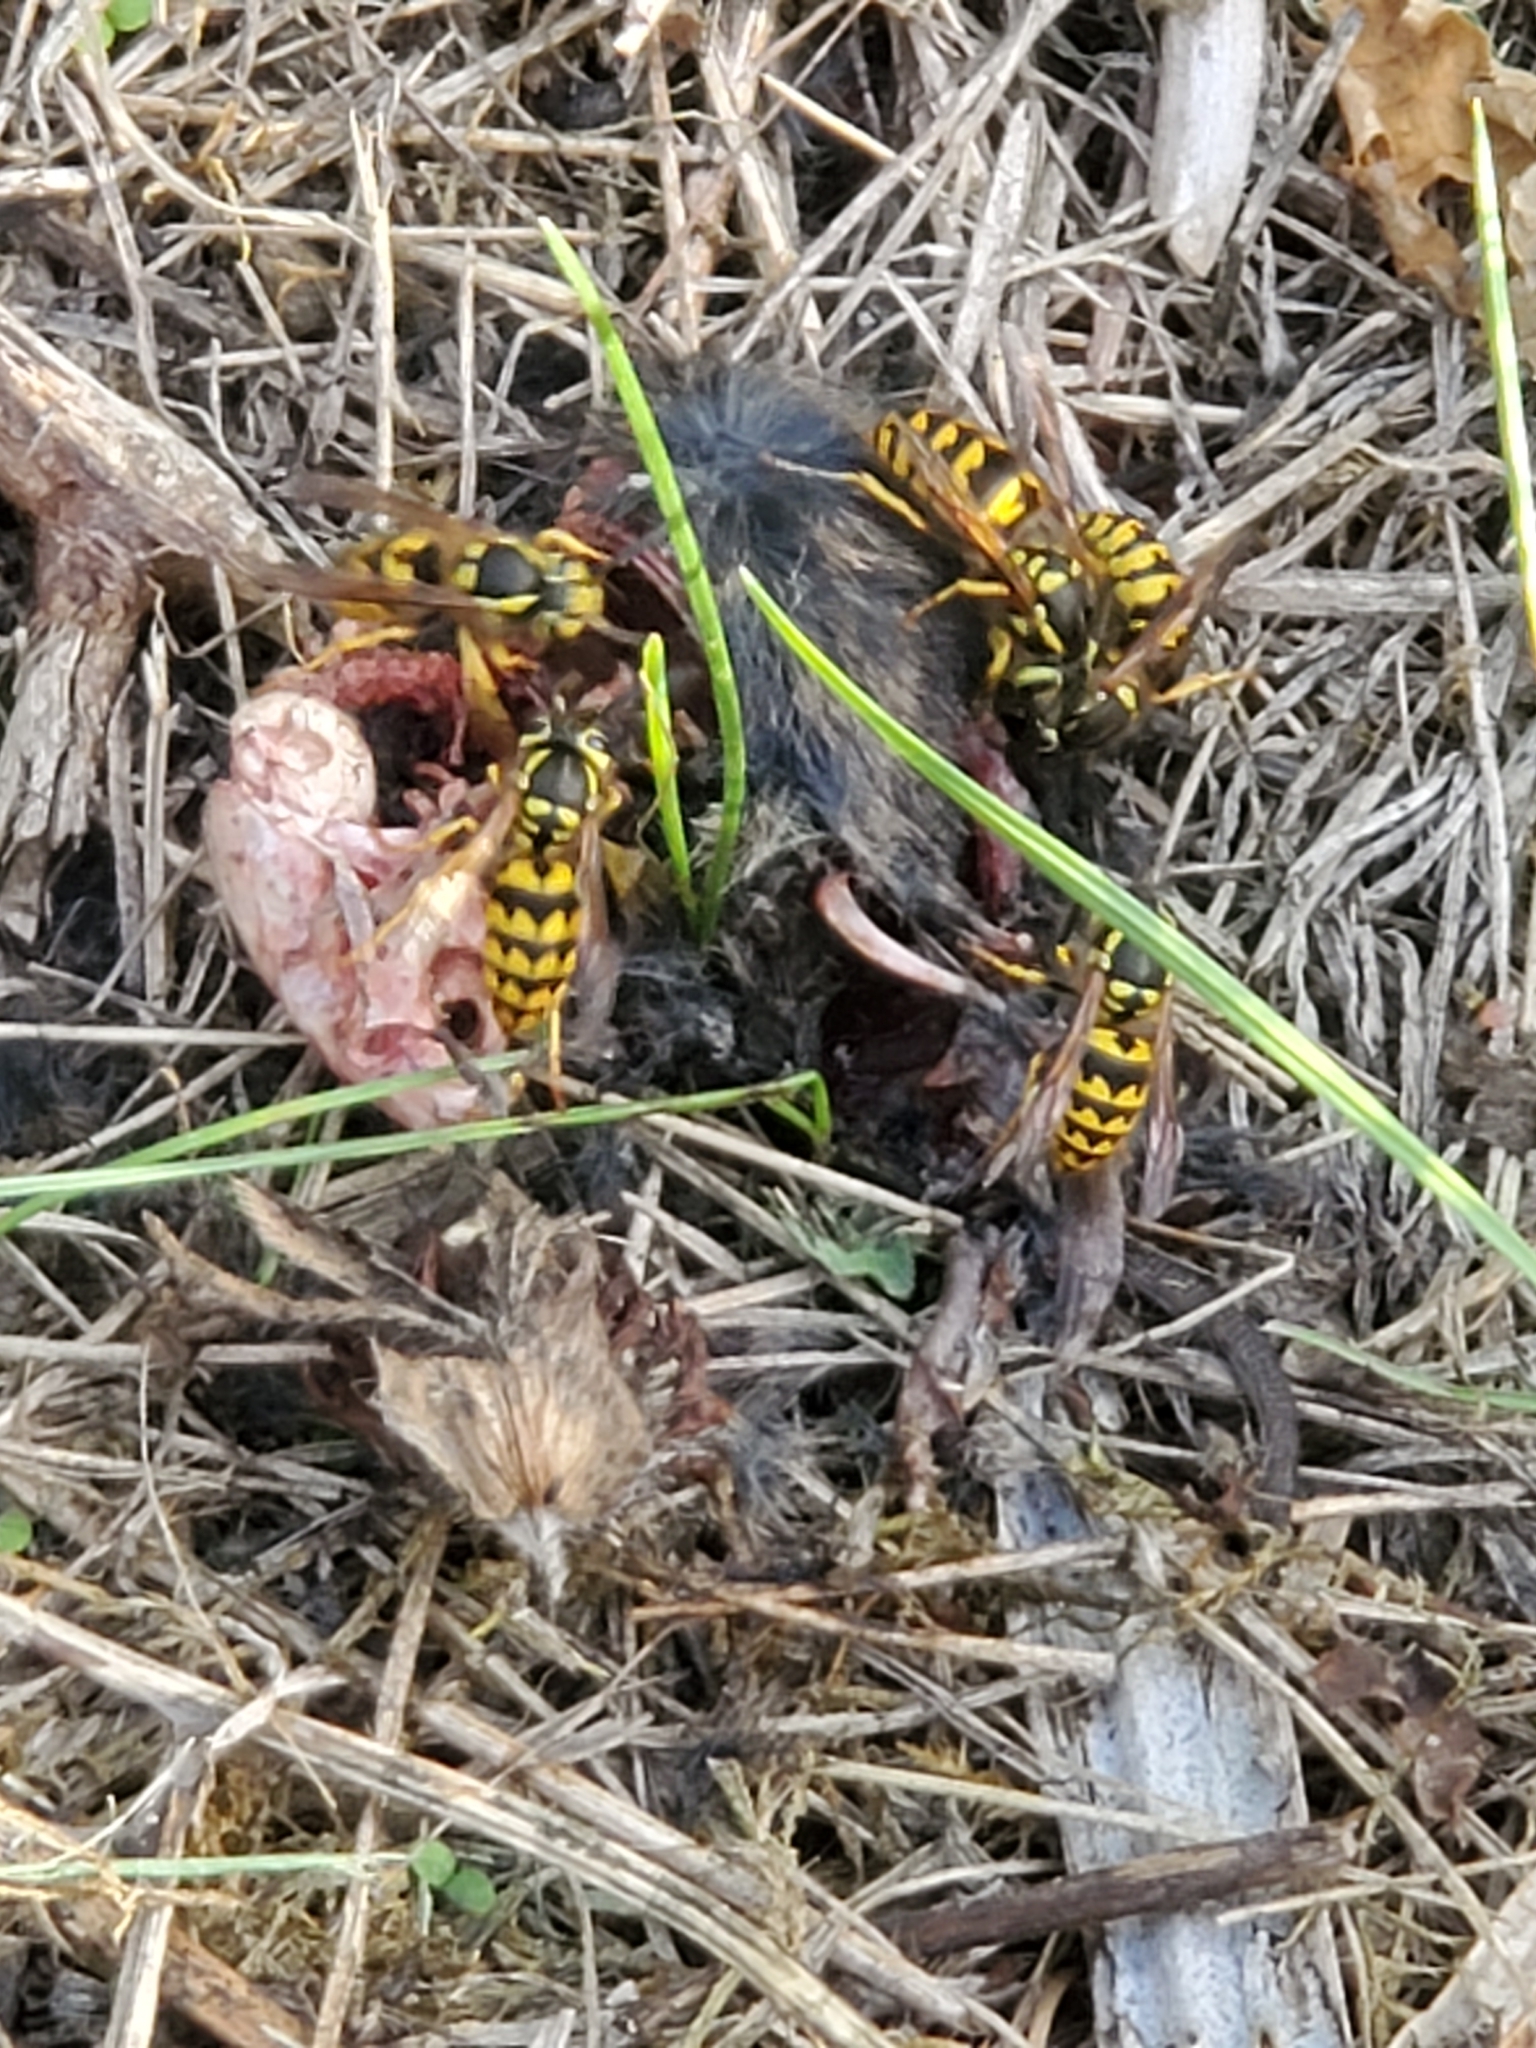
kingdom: Animalia
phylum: Arthropoda
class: Insecta
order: Hymenoptera
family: Vespidae
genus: Vespula
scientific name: Vespula pensylvanica
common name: Western yellowjacket
